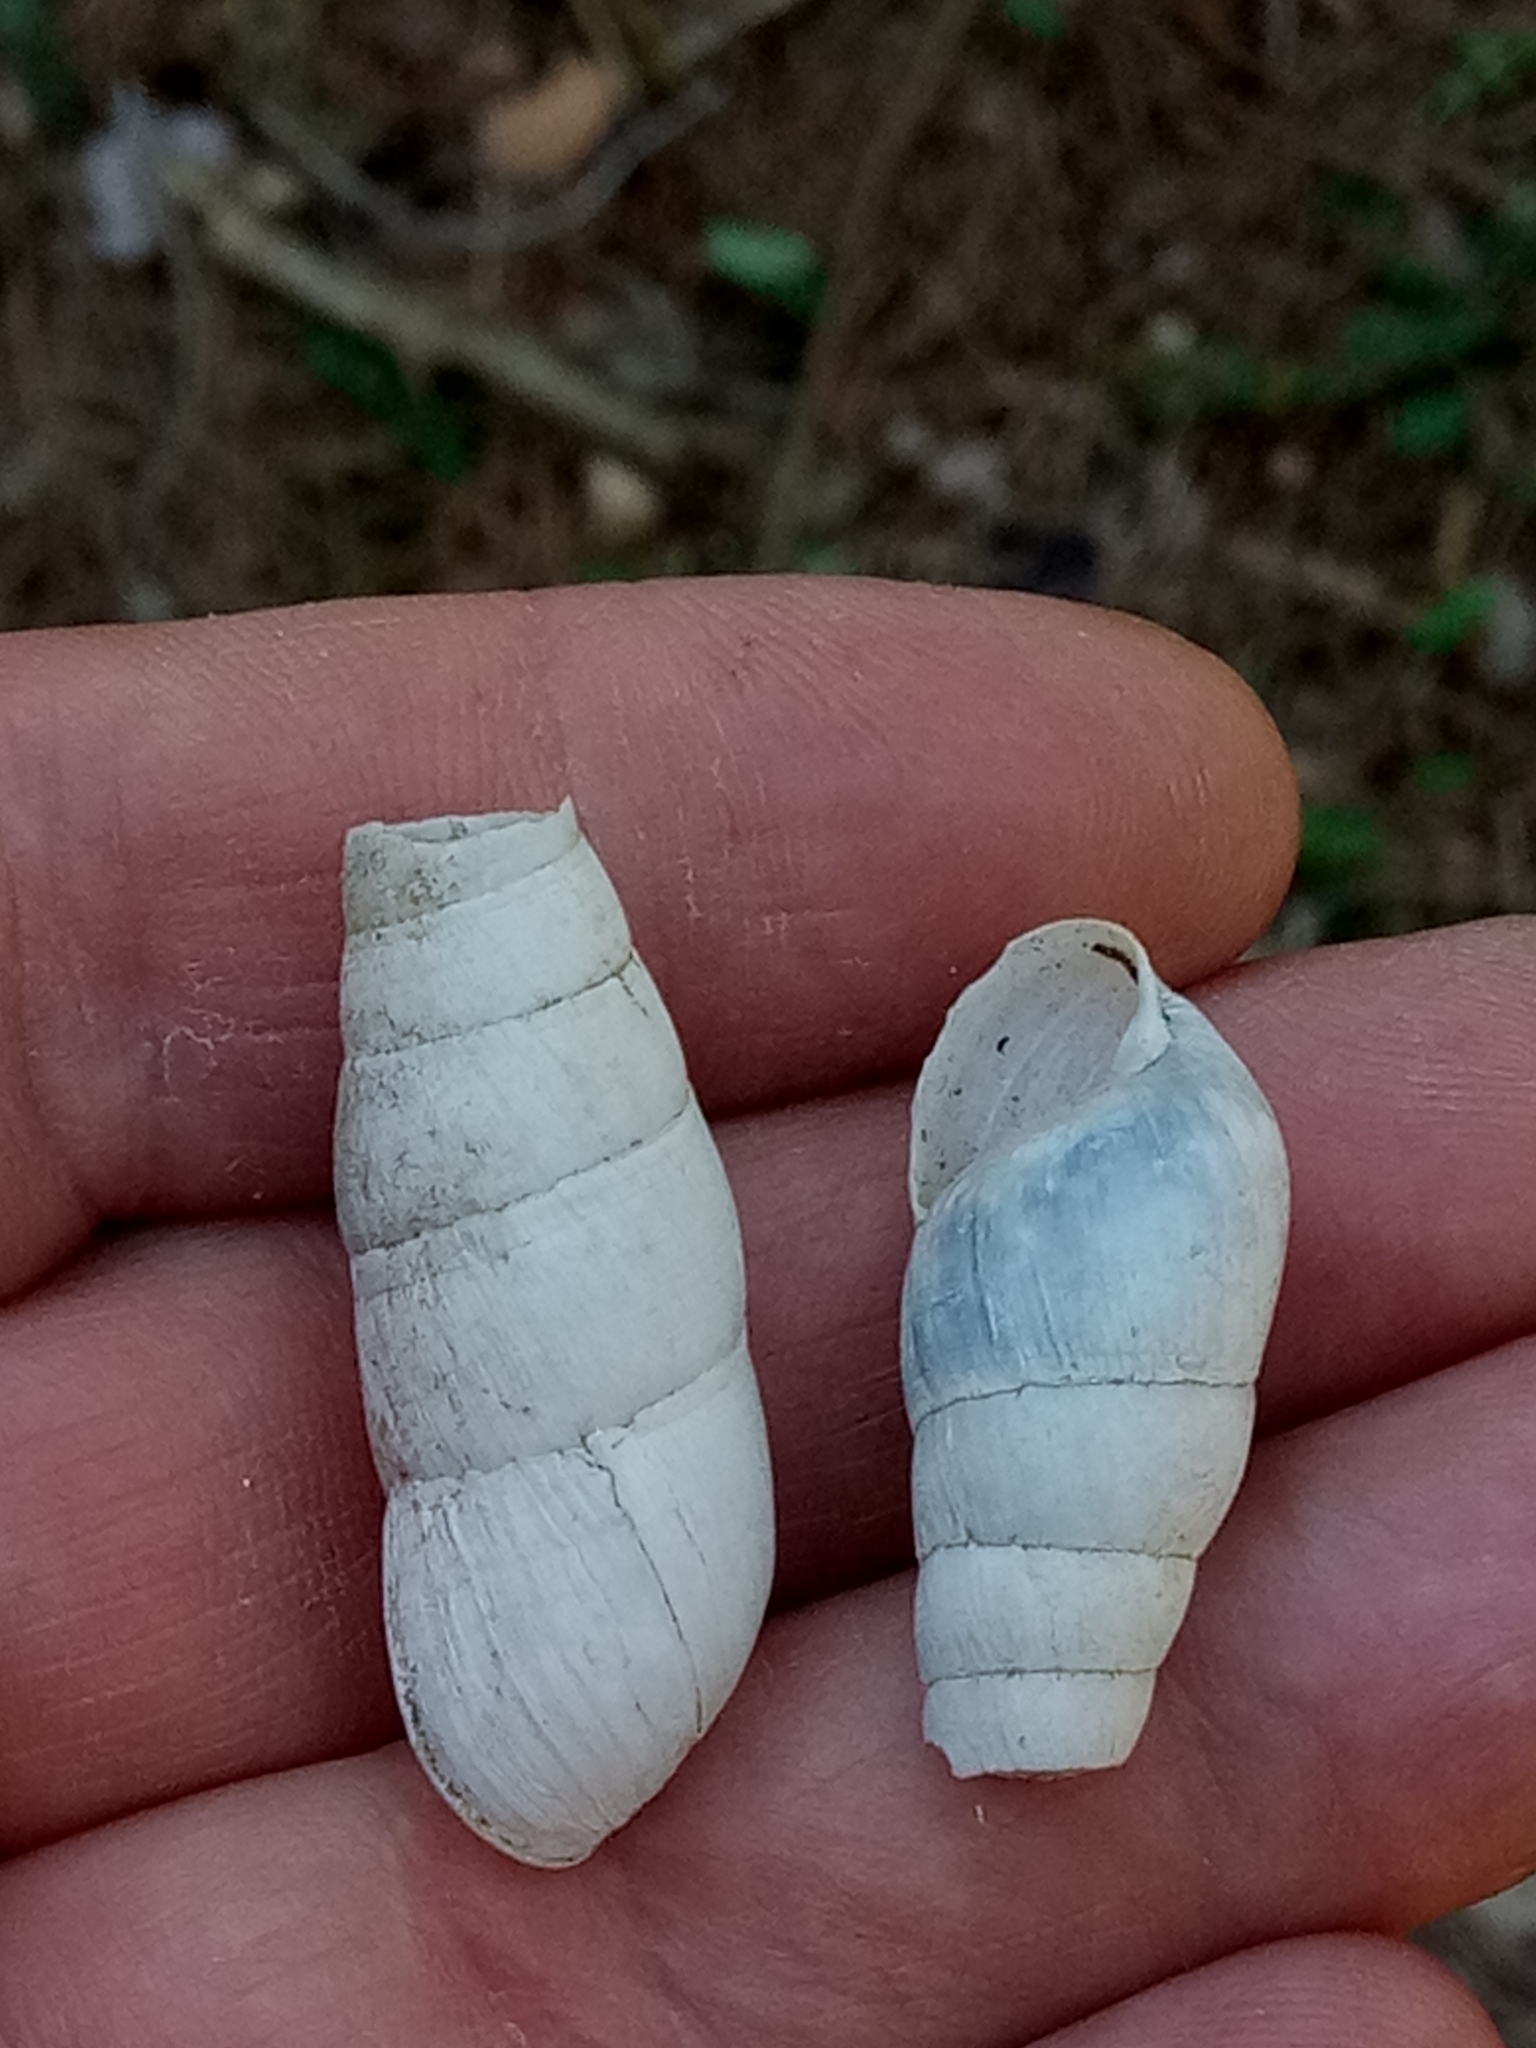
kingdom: Animalia
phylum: Mollusca
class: Gastropoda
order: Stylommatophora
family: Achatinidae
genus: Rumina
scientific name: Rumina decollata
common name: Decollate snail
